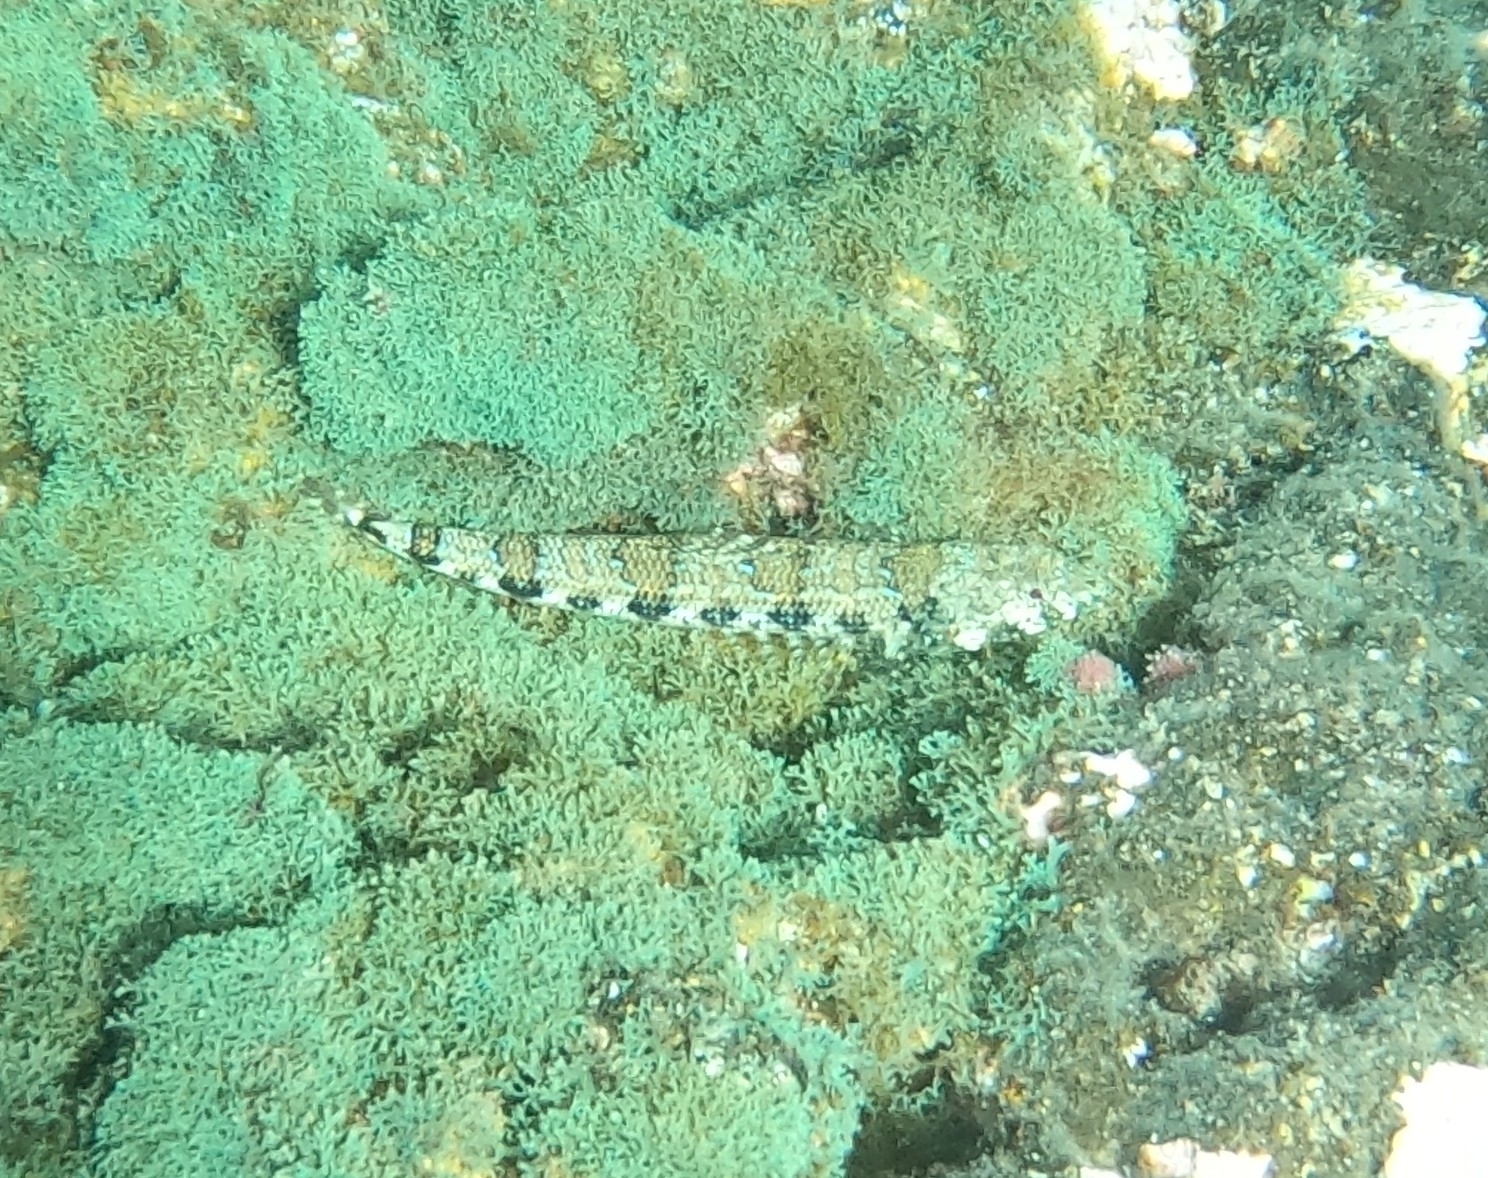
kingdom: Animalia
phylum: Chordata
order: Aulopiformes
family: Synodontidae
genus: Synodus
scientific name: Synodus synodus
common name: Red lizardfish
